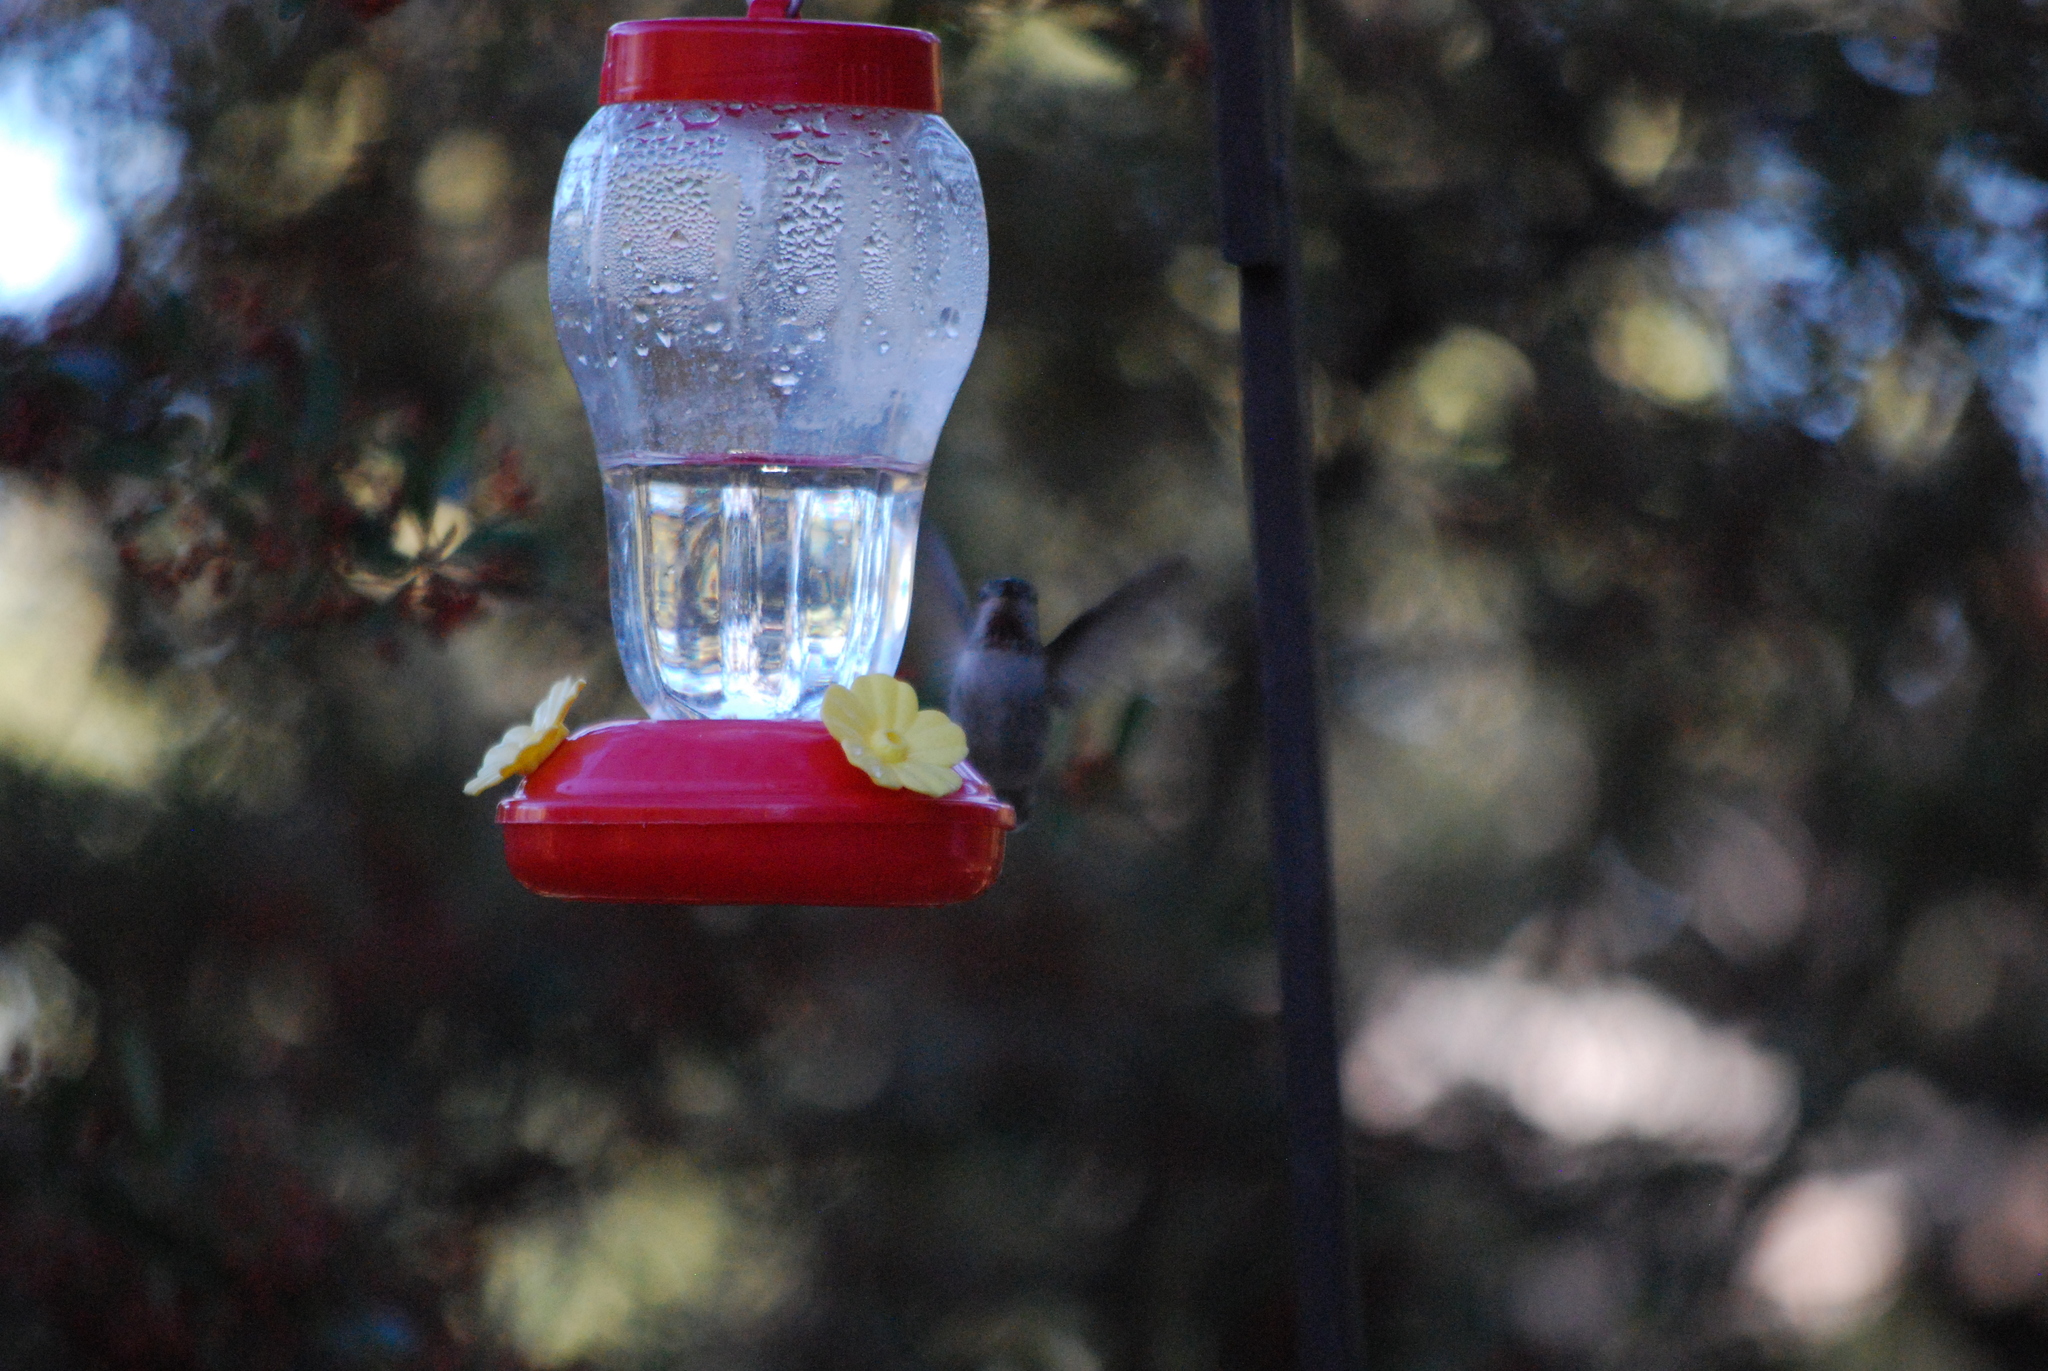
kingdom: Animalia
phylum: Chordata
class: Aves
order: Apodiformes
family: Trochilidae
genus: Calypte
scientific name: Calypte anna
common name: Anna's hummingbird
